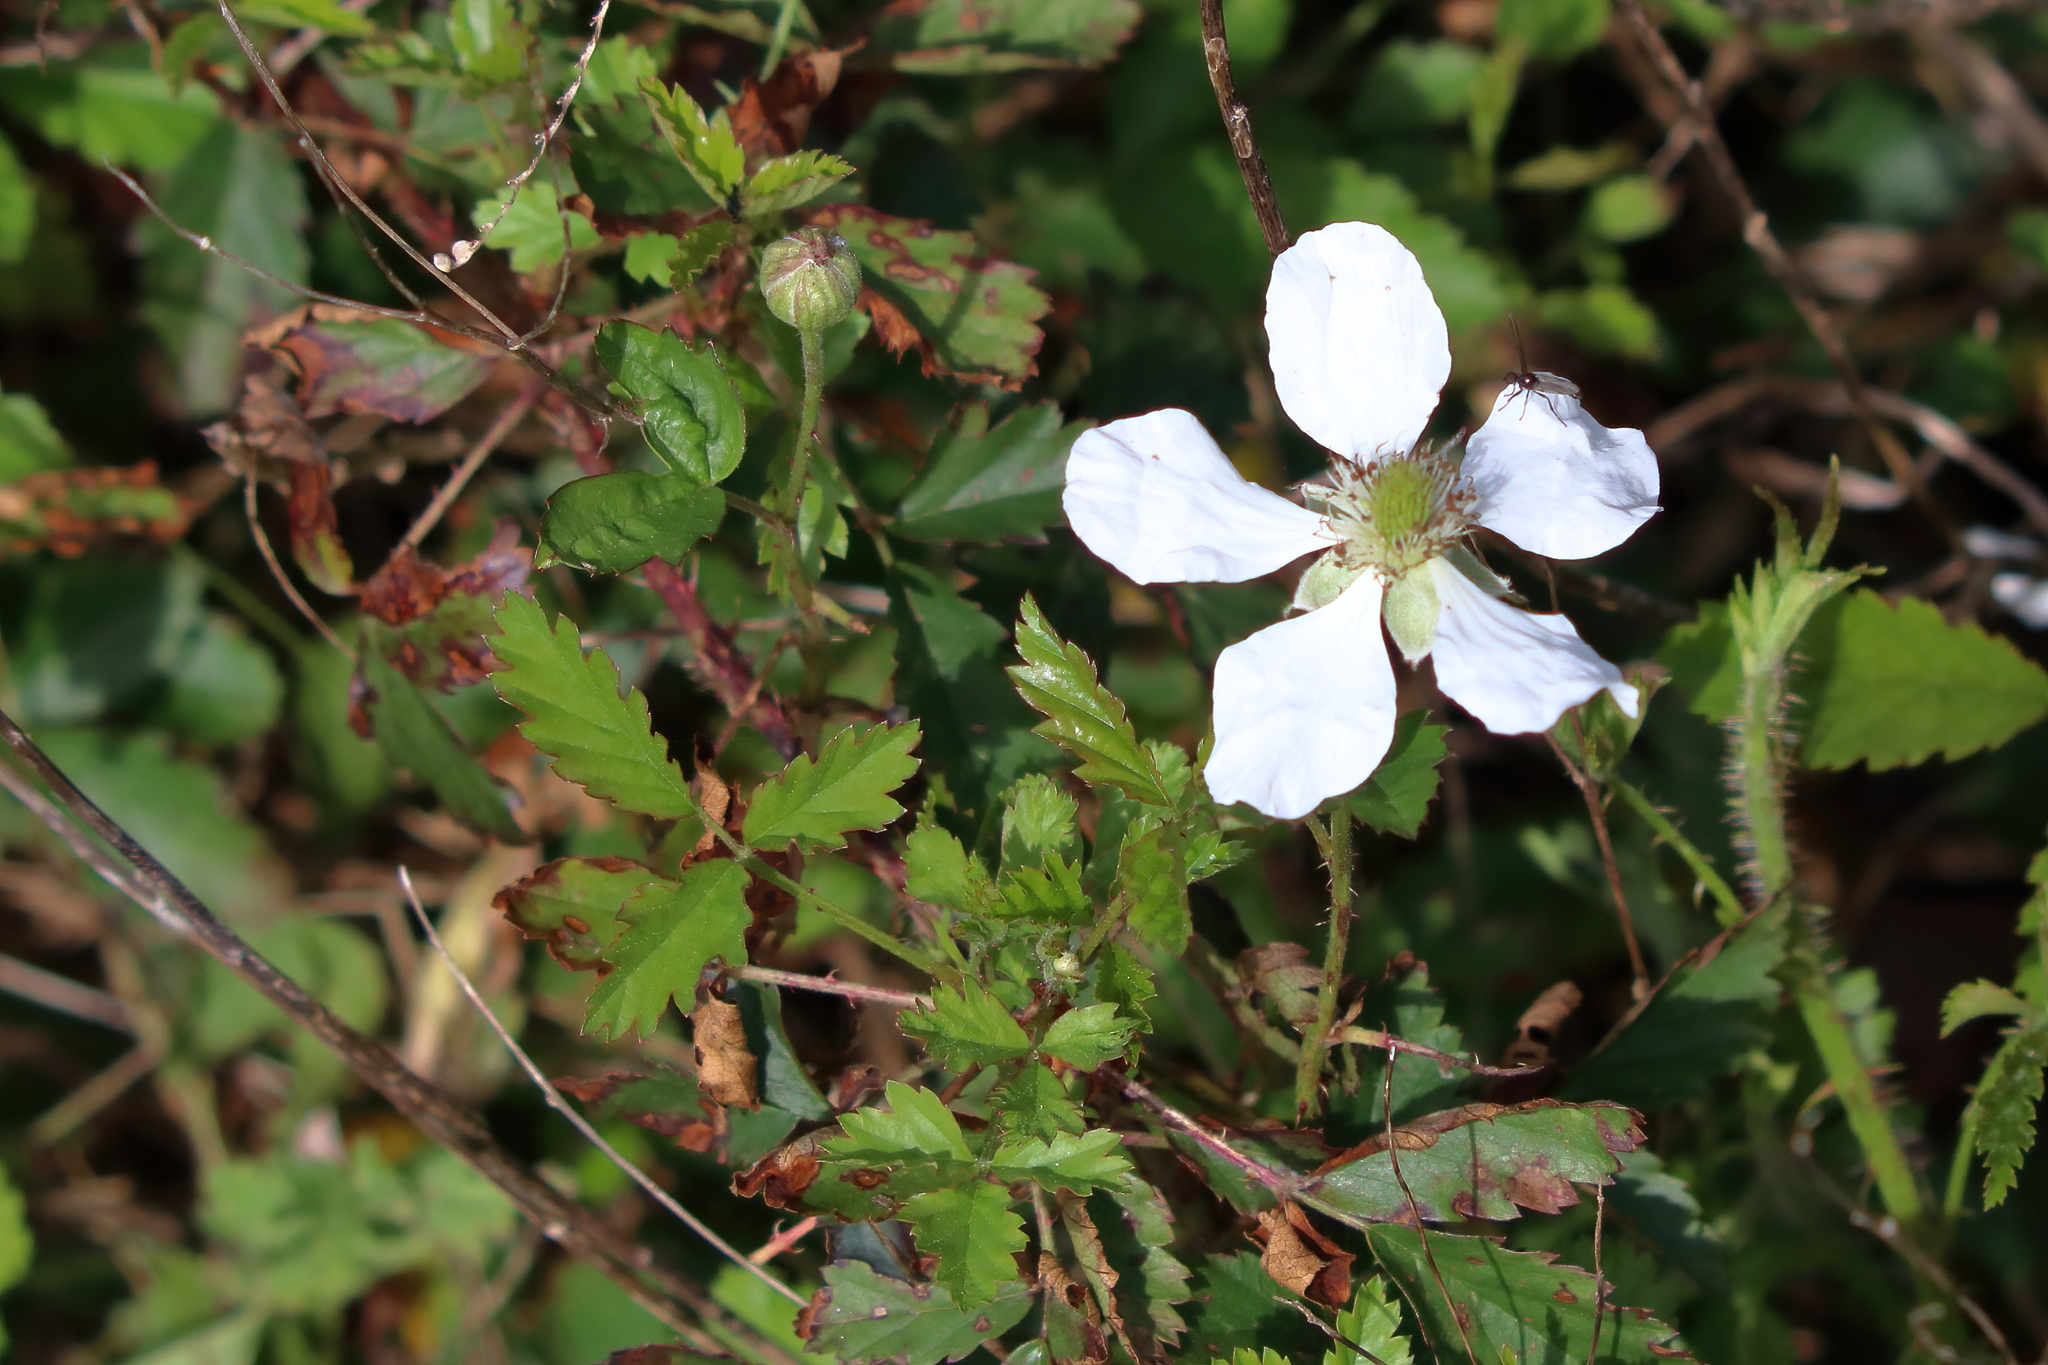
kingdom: Plantae
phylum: Tracheophyta
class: Magnoliopsida
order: Rosales
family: Rosaceae
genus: Rubus
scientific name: Rubus trivialis
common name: Southern dewberry
